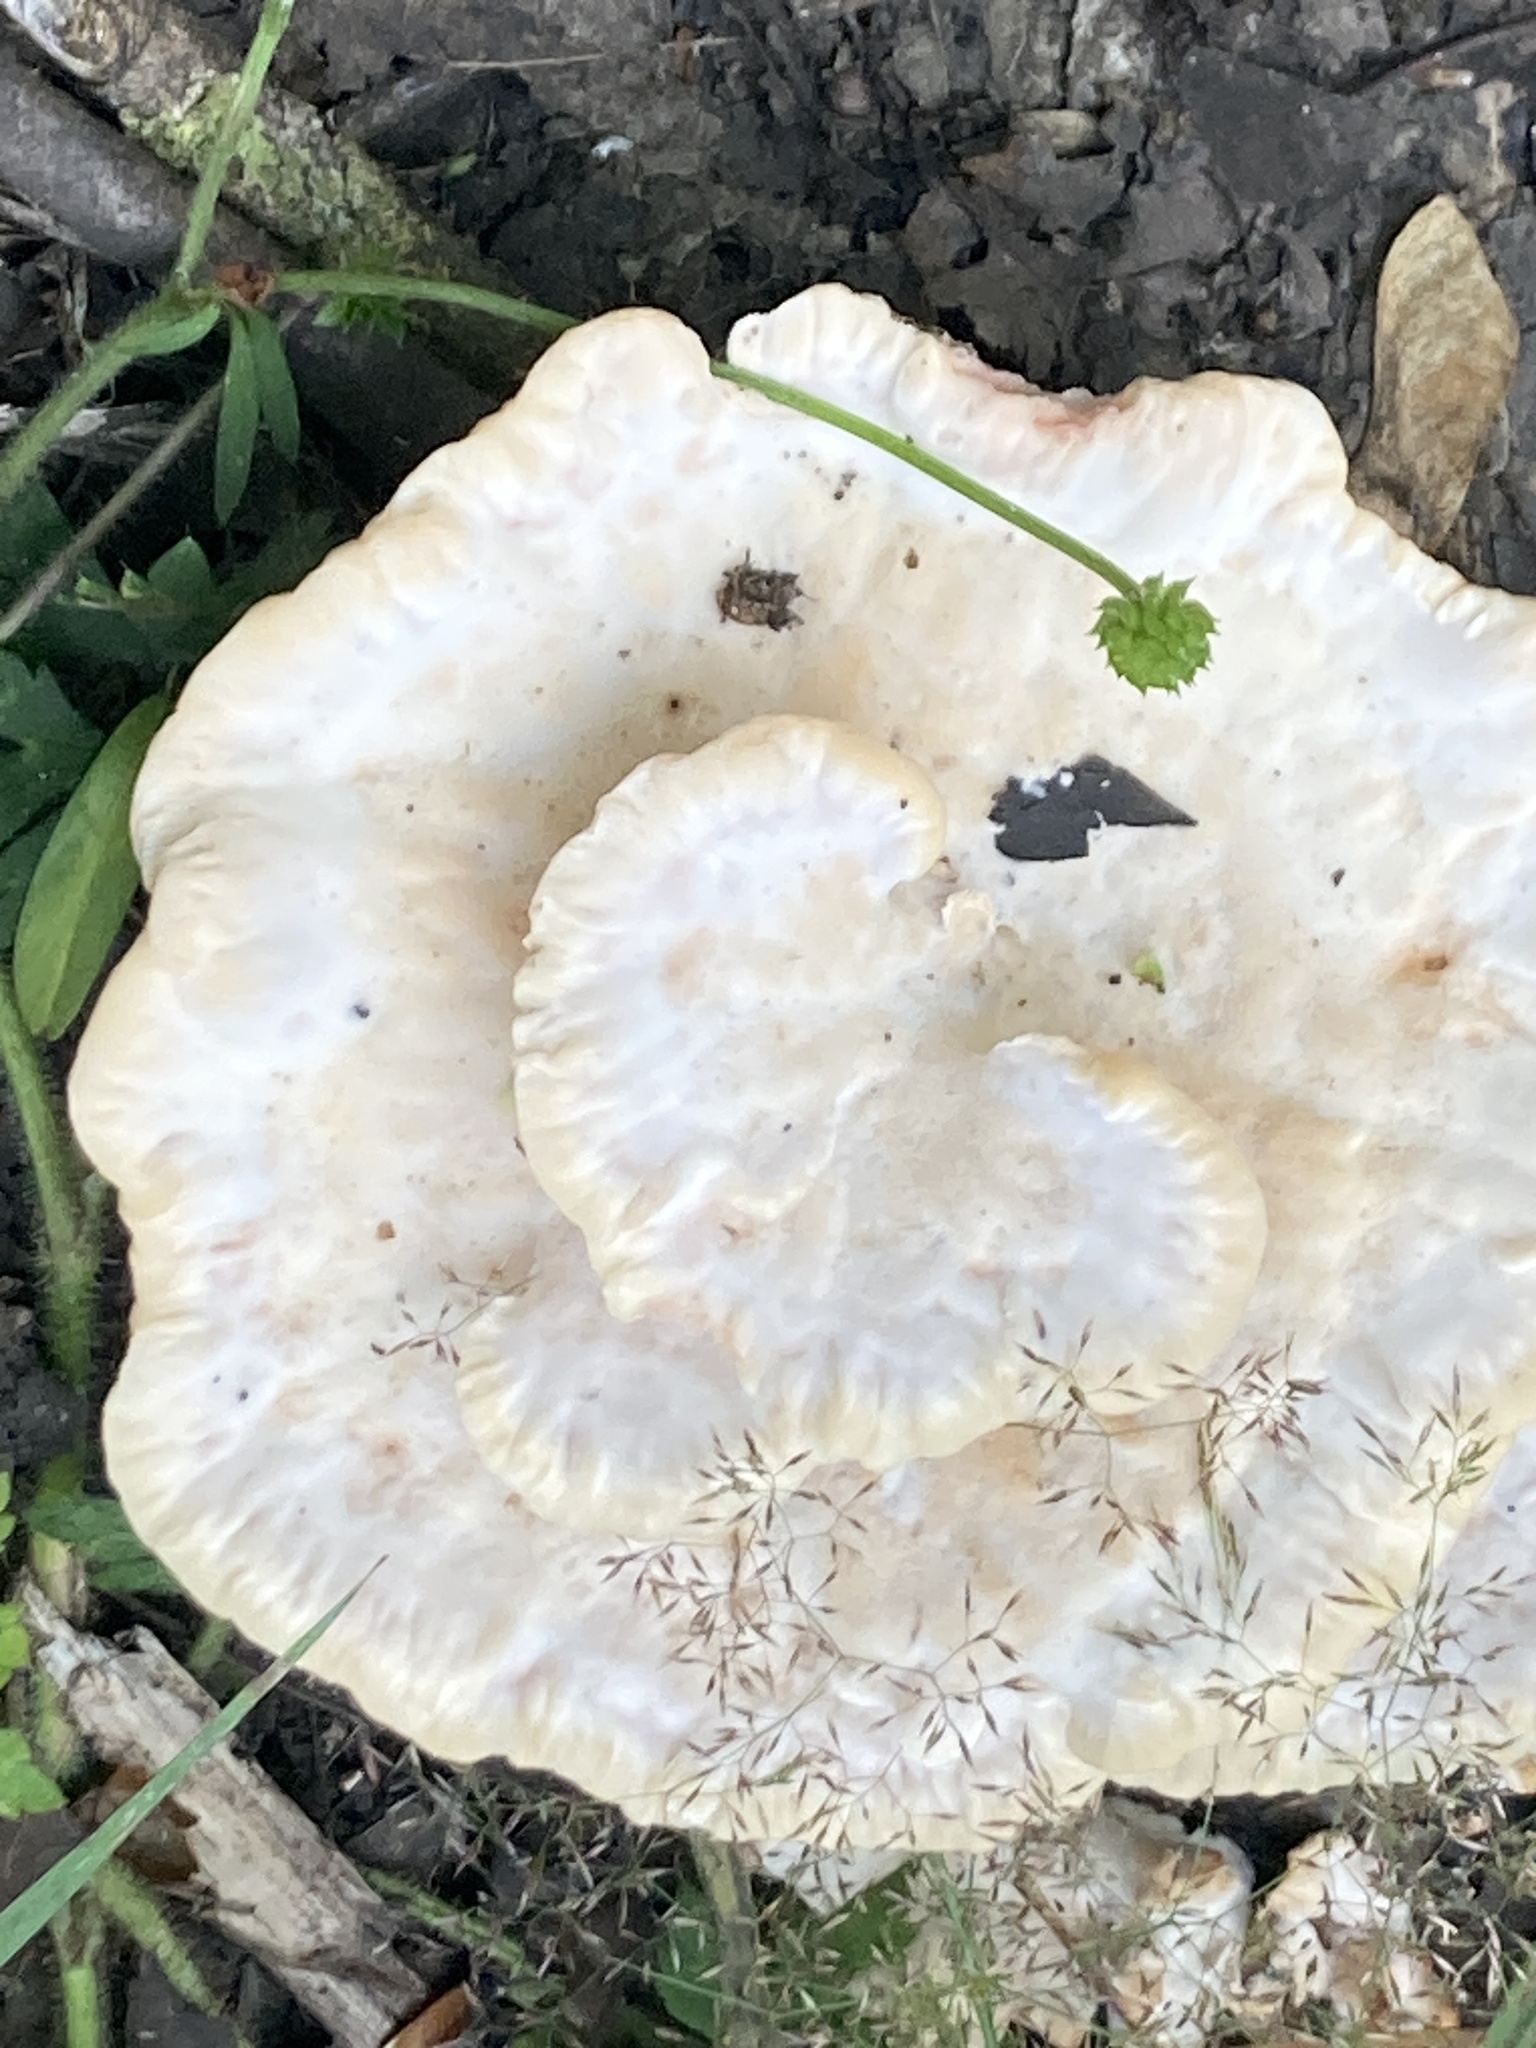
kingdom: Fungi
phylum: Basidiomycota
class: Agaricomycetes
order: Polyporales
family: Podoscyphaceae
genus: Abortiporus
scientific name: Abortiporus biennis
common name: Blushing rosette
